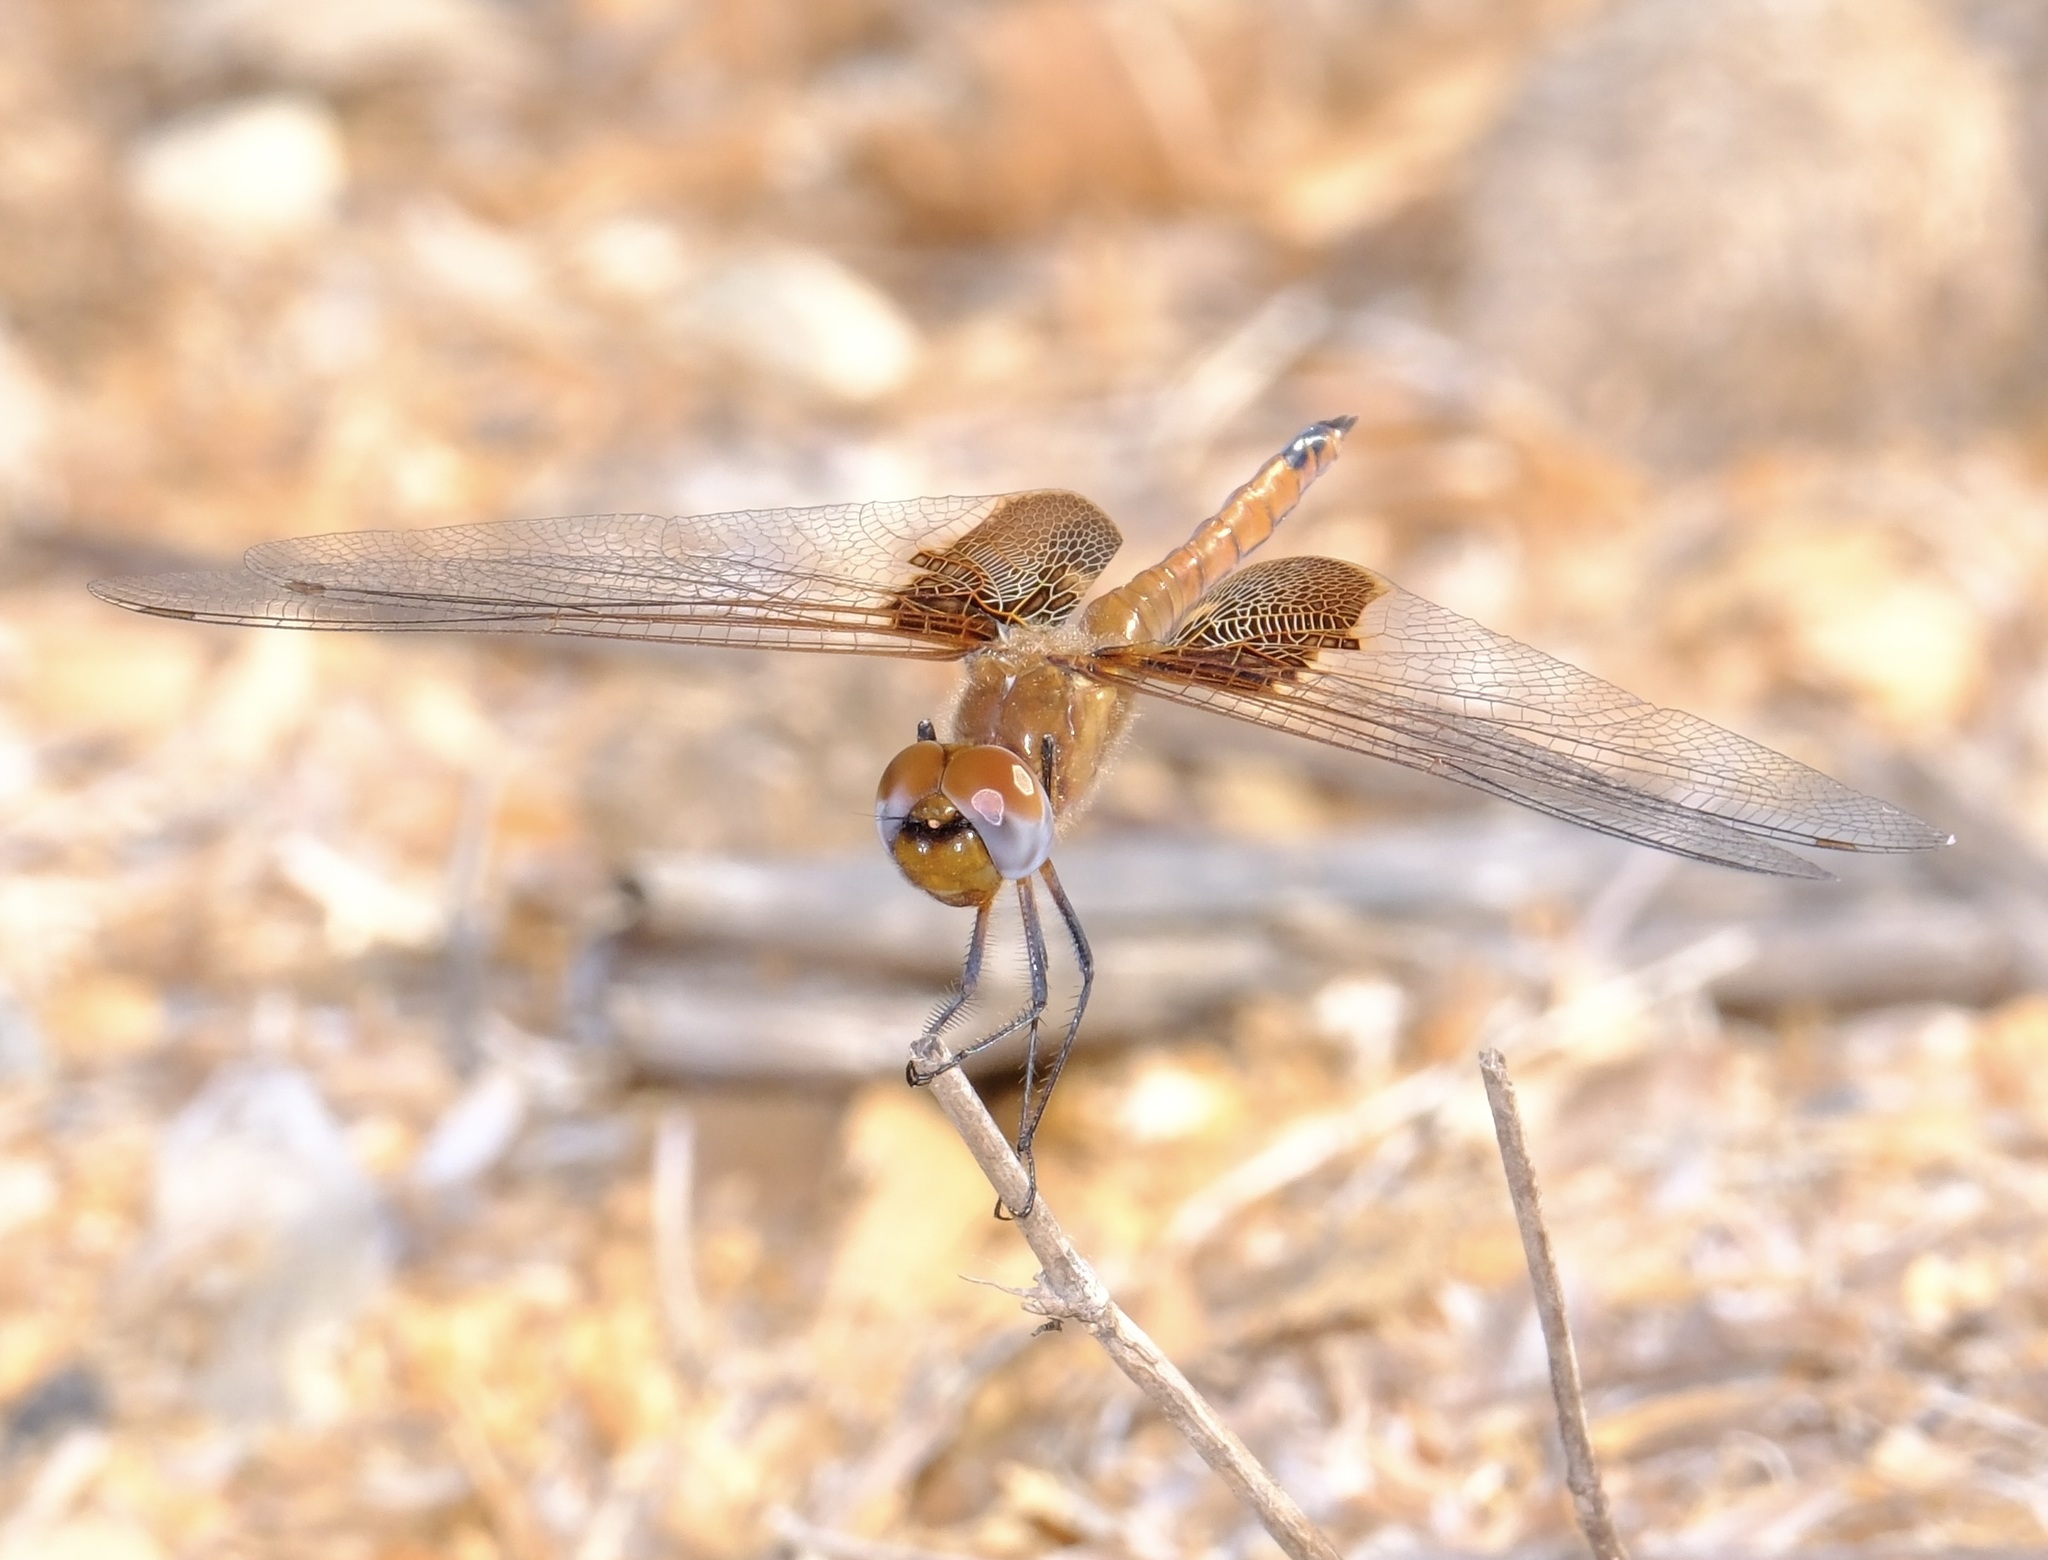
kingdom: Animalia
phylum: Arthropoda
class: Insecta
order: Odonata
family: Libellulidae
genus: Tramea
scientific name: Tramea onusta
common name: Red saddlebags
